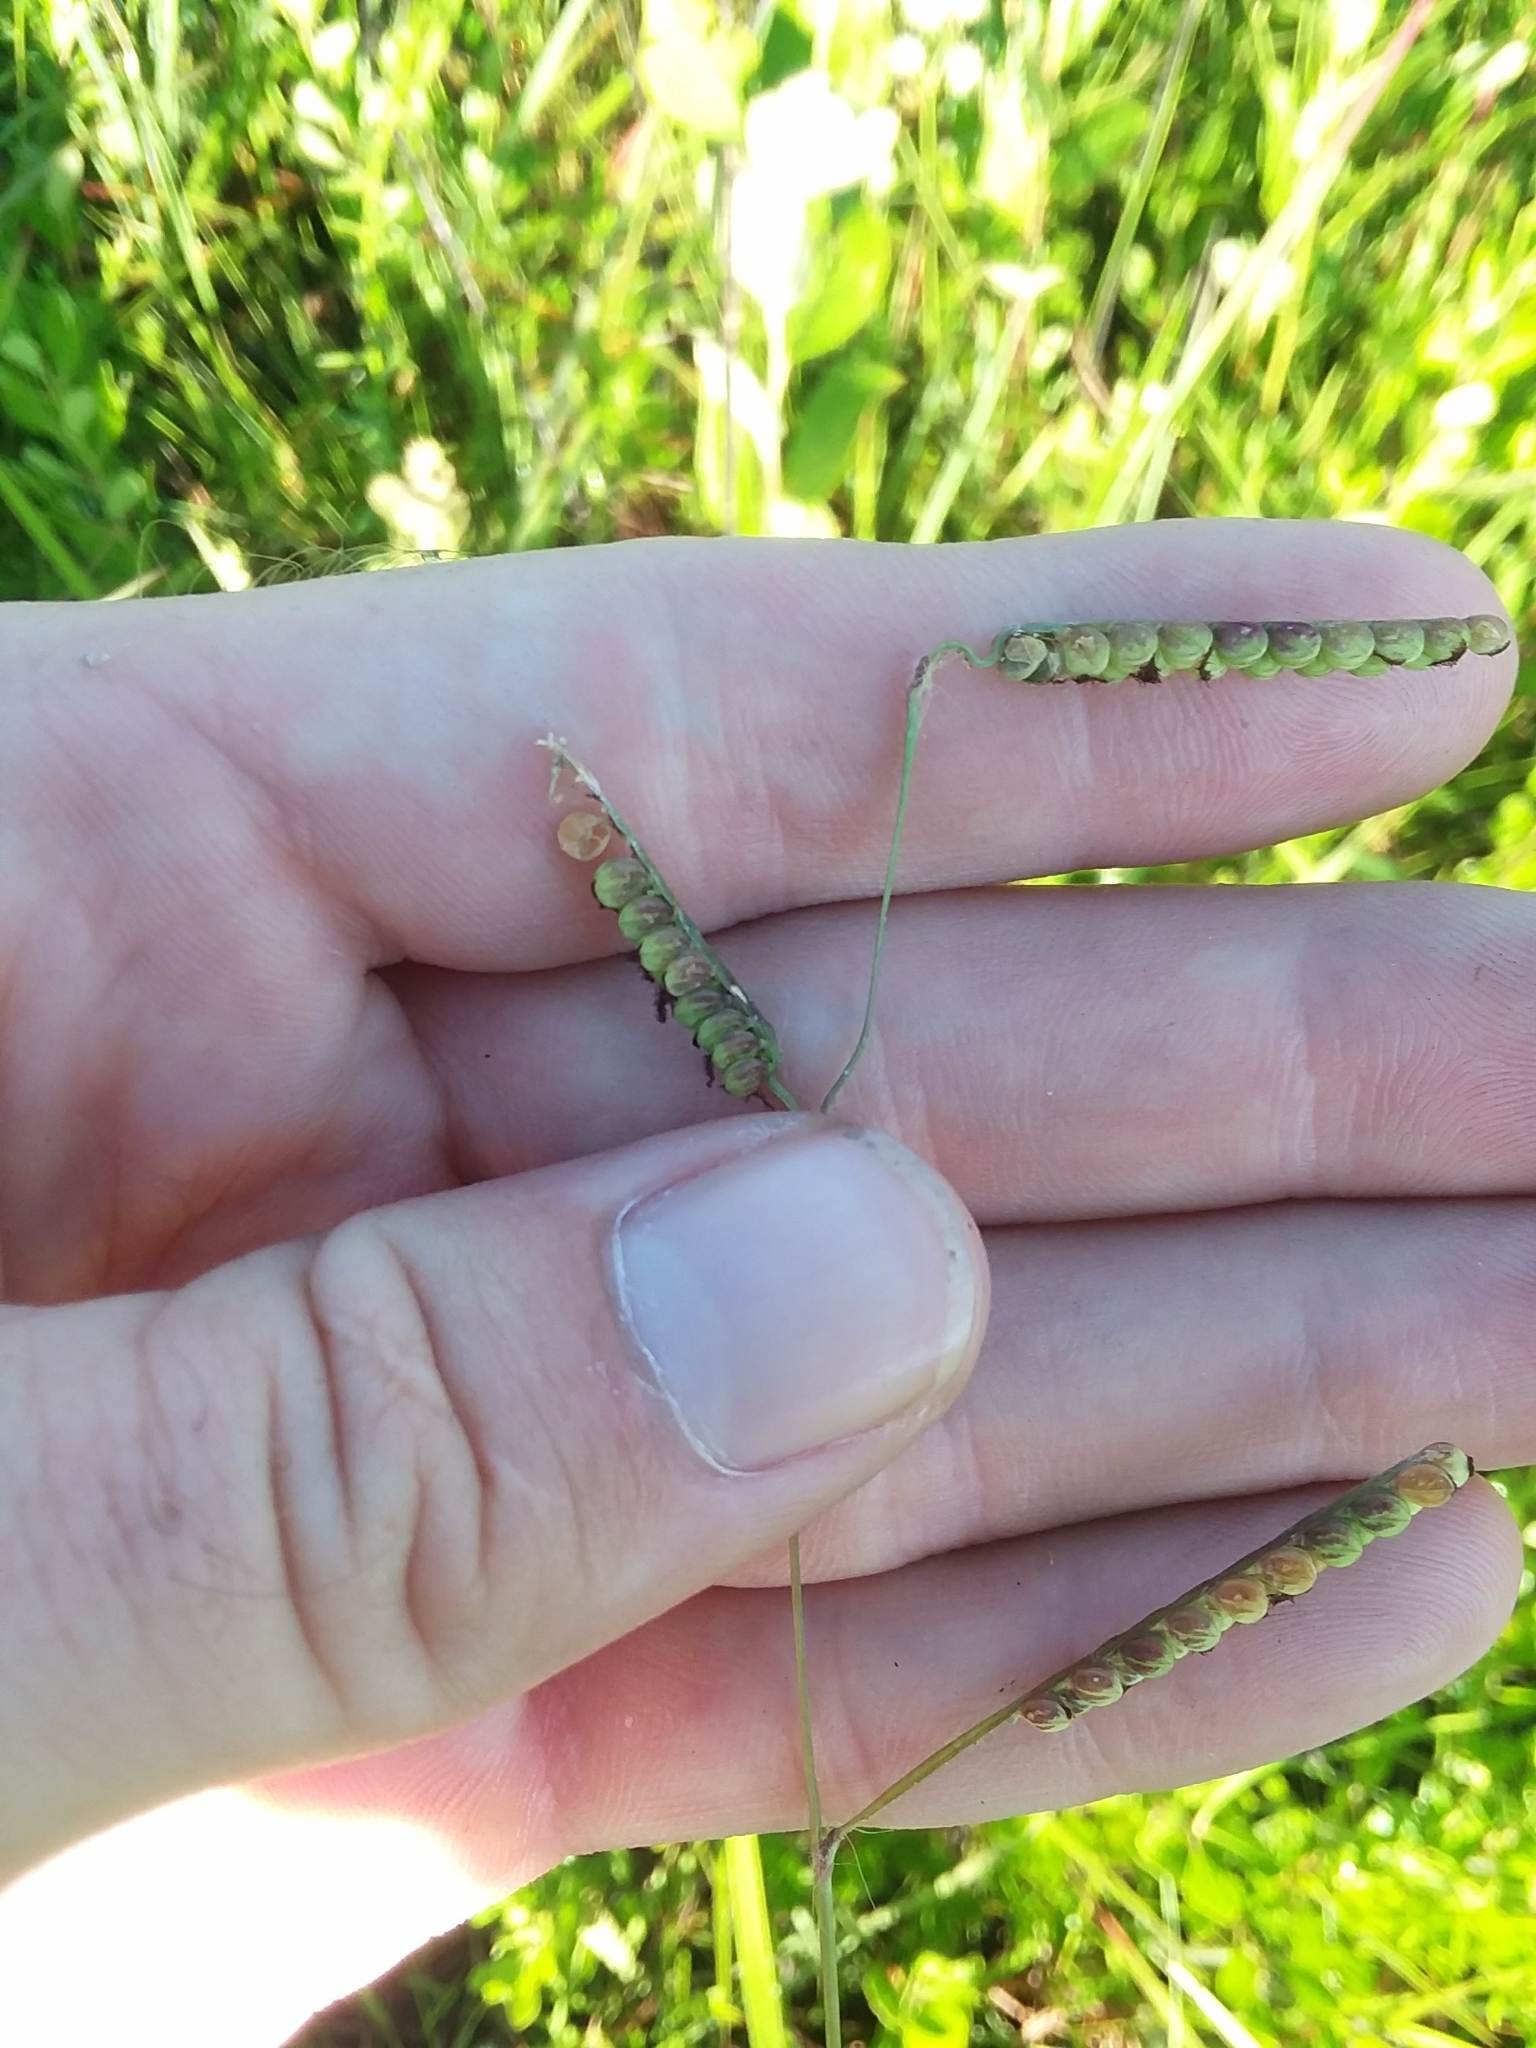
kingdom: Plantae
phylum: Tracheophyta
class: Liliopsida
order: Poales
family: Poaceae
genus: Paspalum
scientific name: Paspalum praecox
